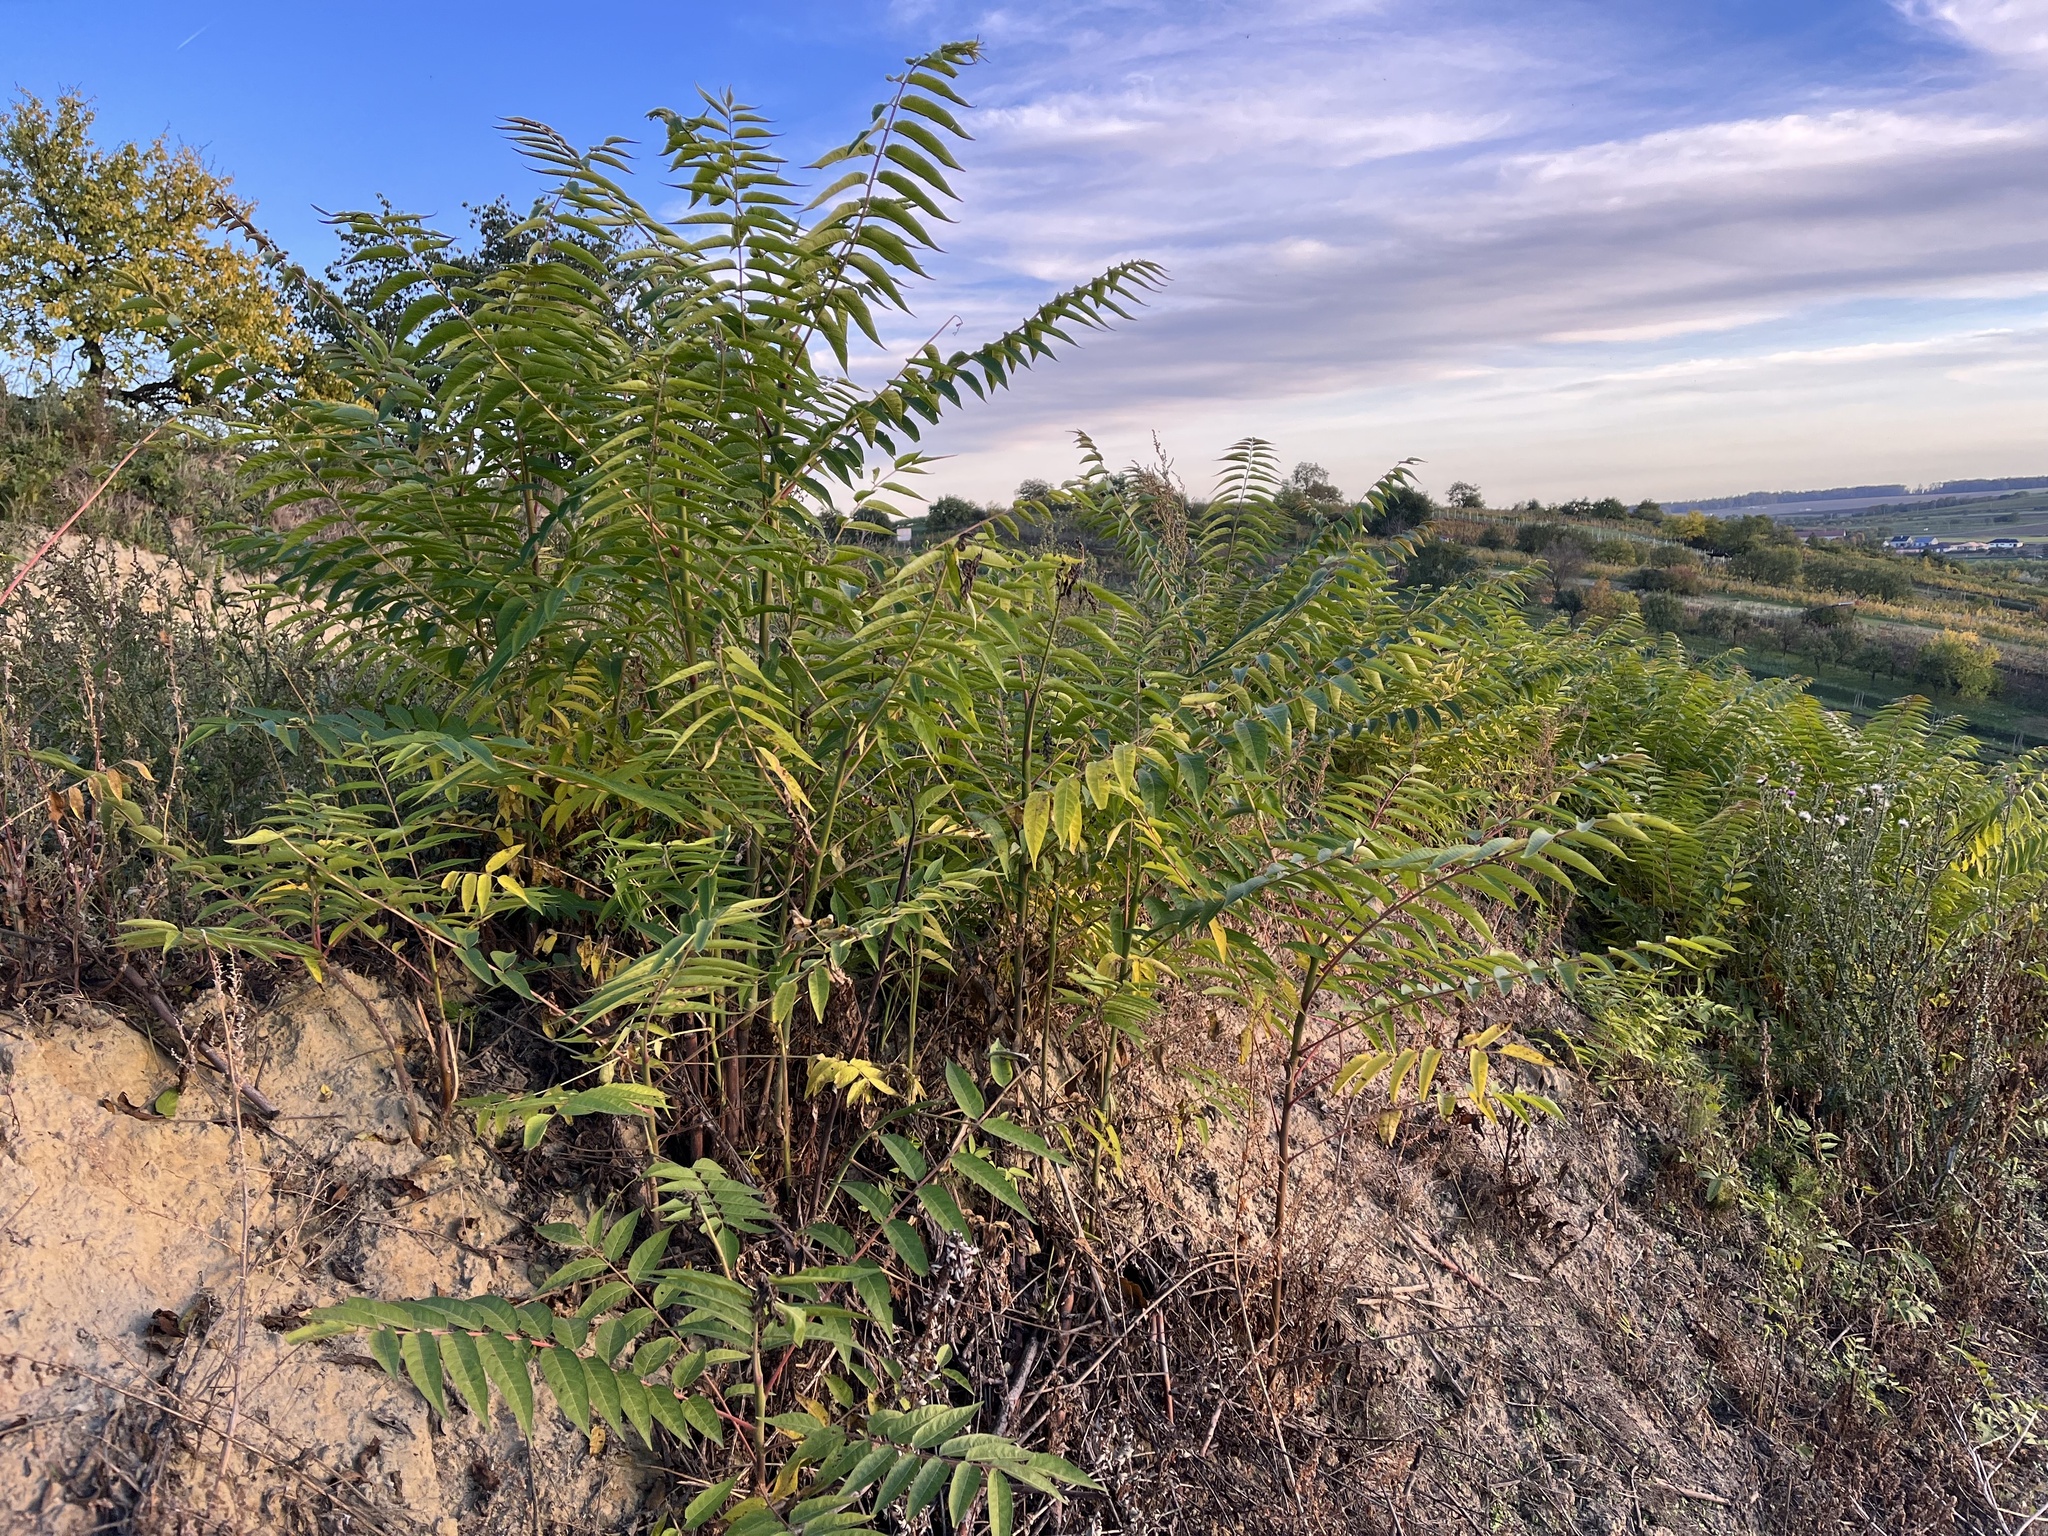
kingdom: Plantae
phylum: Tracheophyta
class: Magnoliopsida
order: Sapindales
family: Simaroubaceae
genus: Ailanthus
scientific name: Ailanthus altissima
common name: Tree-of-heaven
